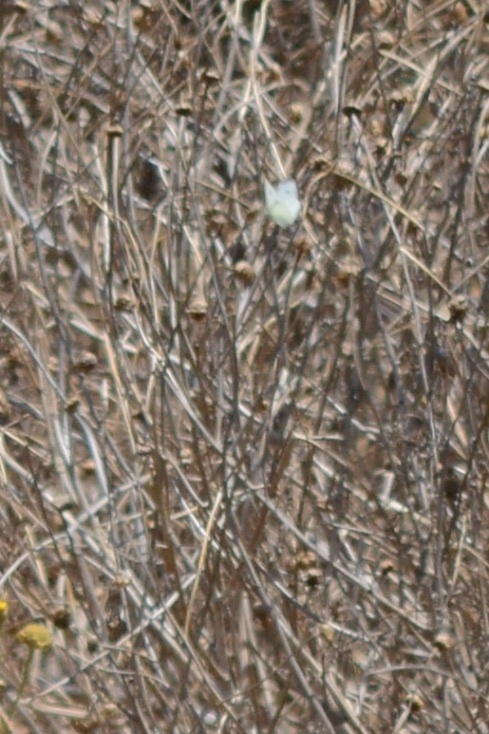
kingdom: Animalia
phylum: Arthropoda
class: Insecta
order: Lepidoptera
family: Pieridae
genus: Pieris
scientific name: Pieris rapae
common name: Small white
